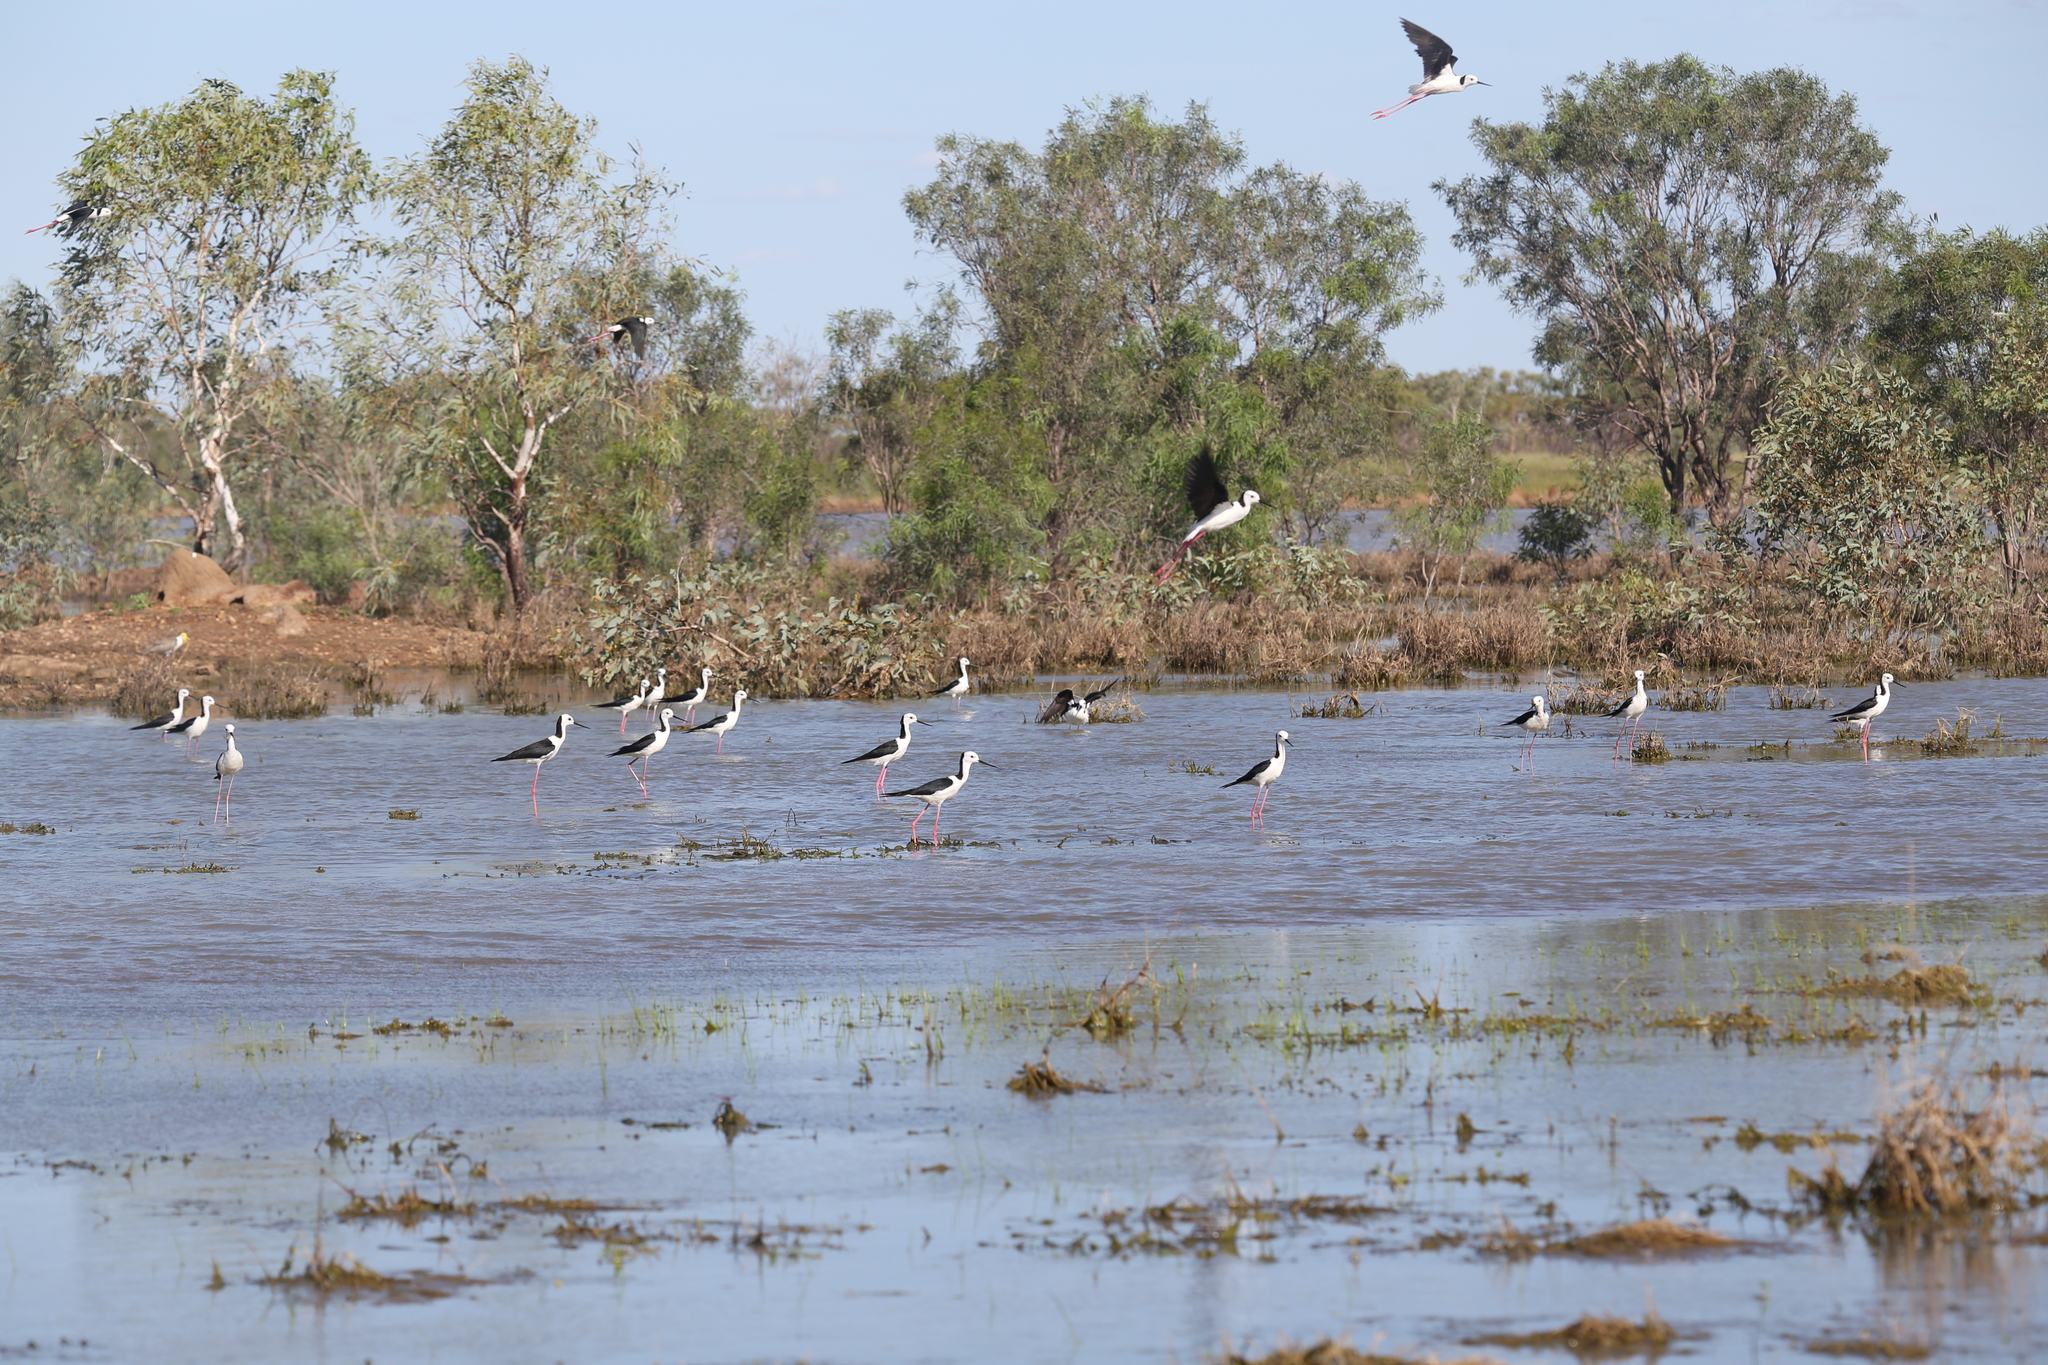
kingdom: Animalia
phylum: Chordata
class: Aves
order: Charadriiformes
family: Recurvirostridae
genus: Himantopus
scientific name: Himantopus leucocephalus
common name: White-headed stilt
